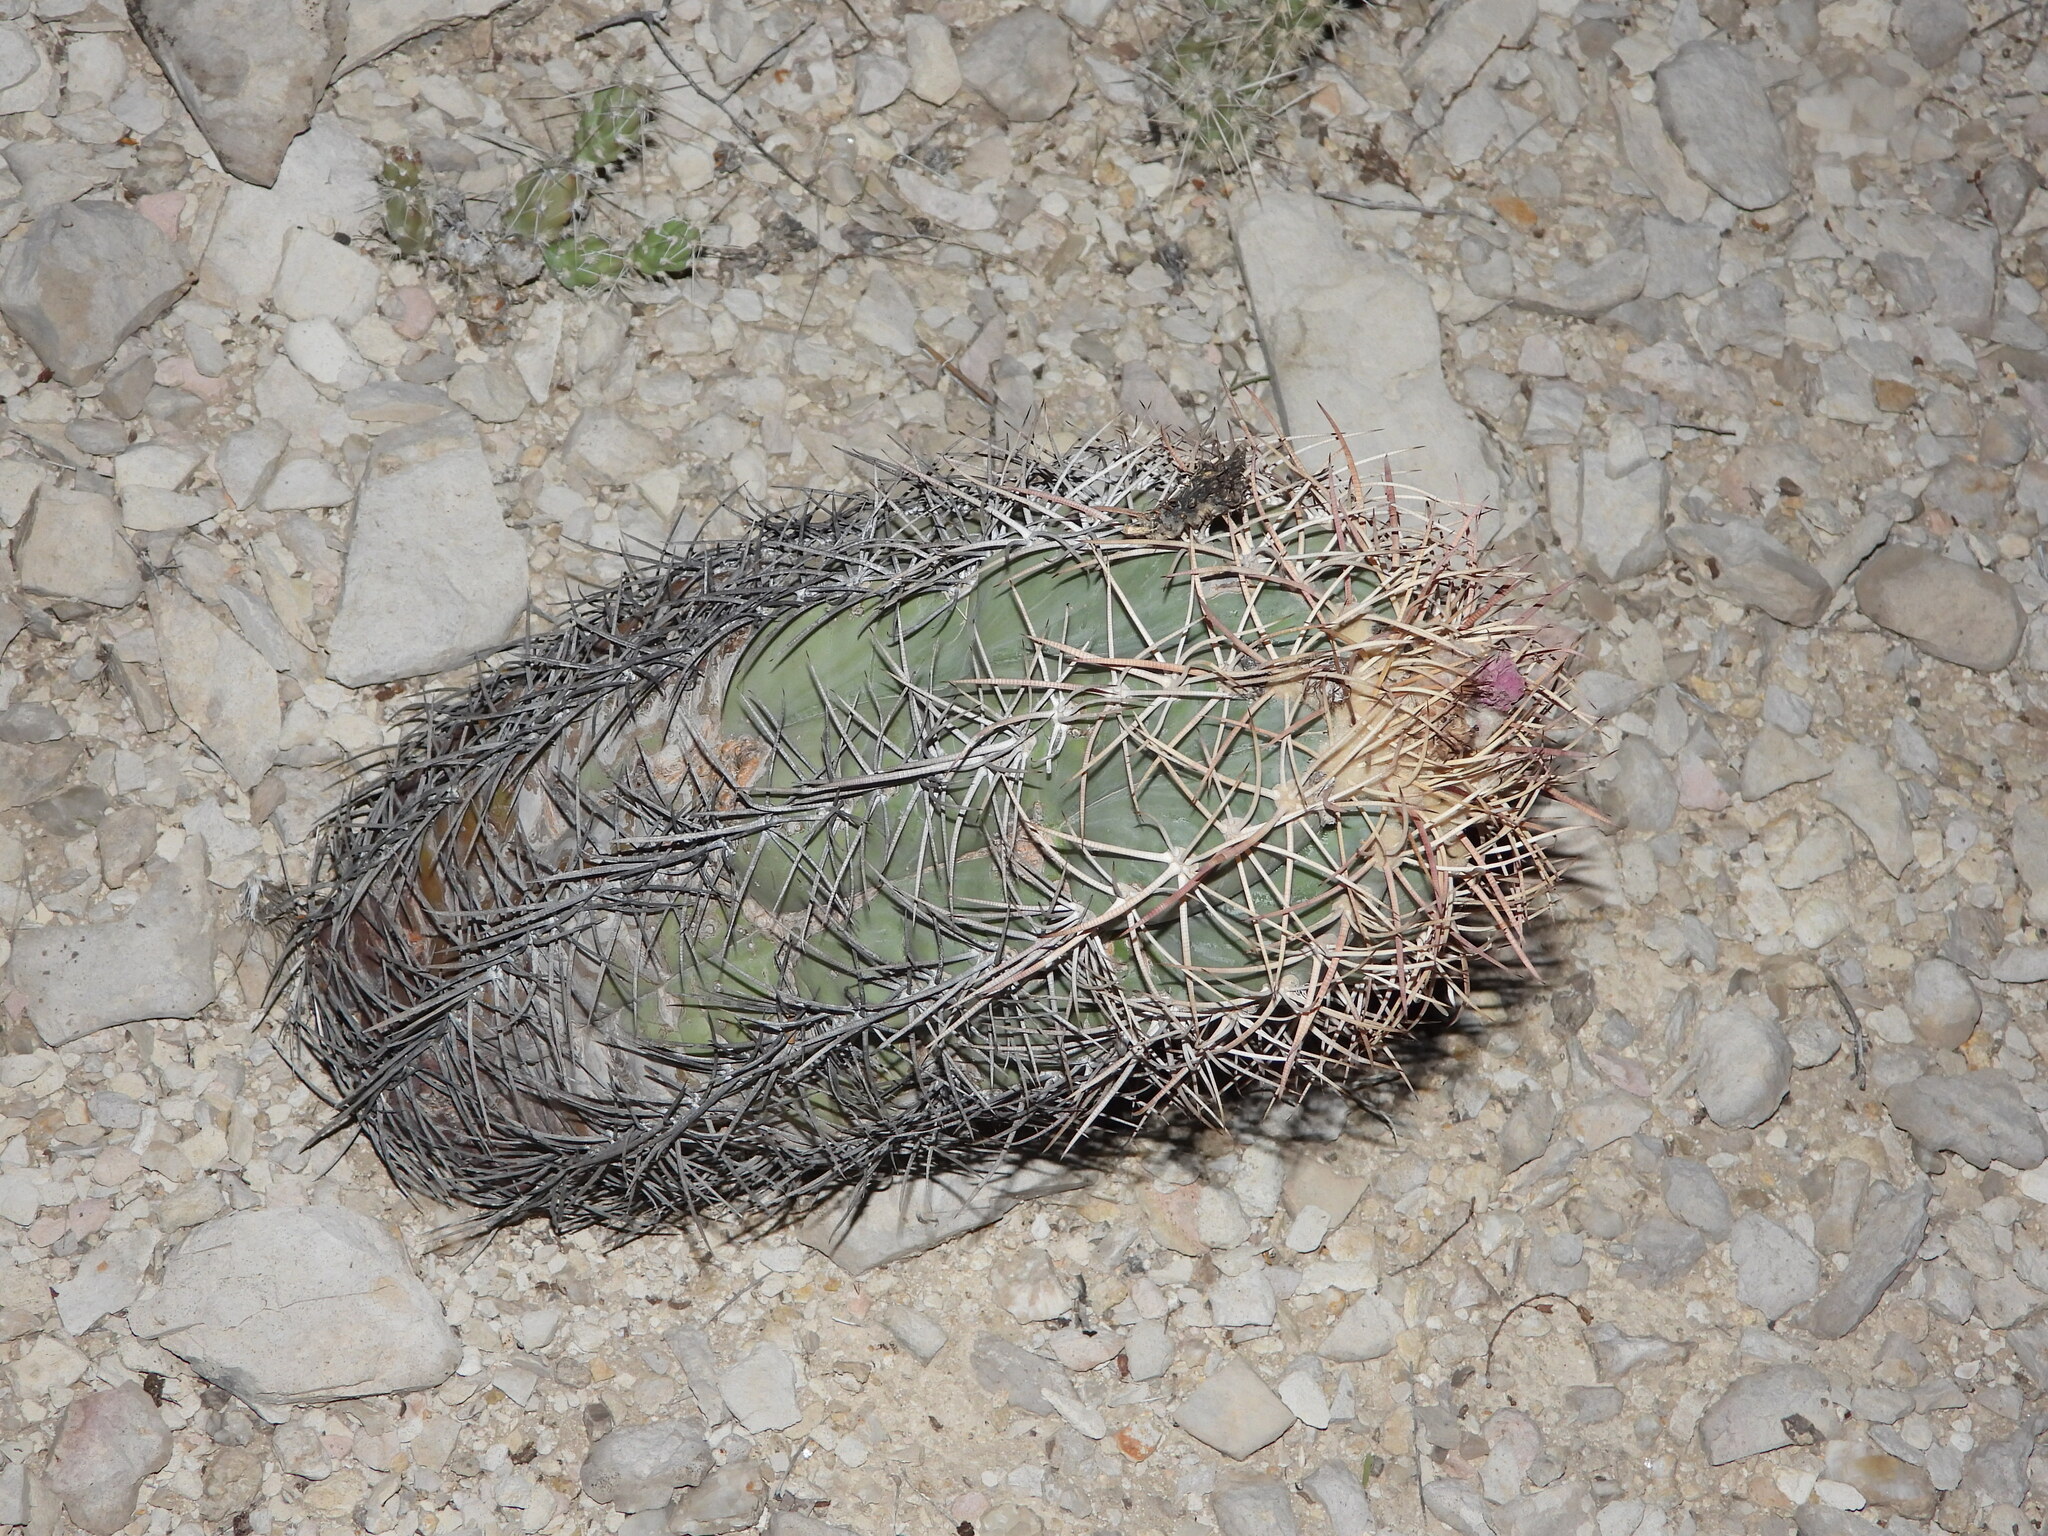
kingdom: Plantae
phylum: Tracheophyta
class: Magnoliopsida
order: Caryophyllales
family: Cactaceae
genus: Echinocactus
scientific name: Echinocactus horizonthalonius
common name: Devilshead
